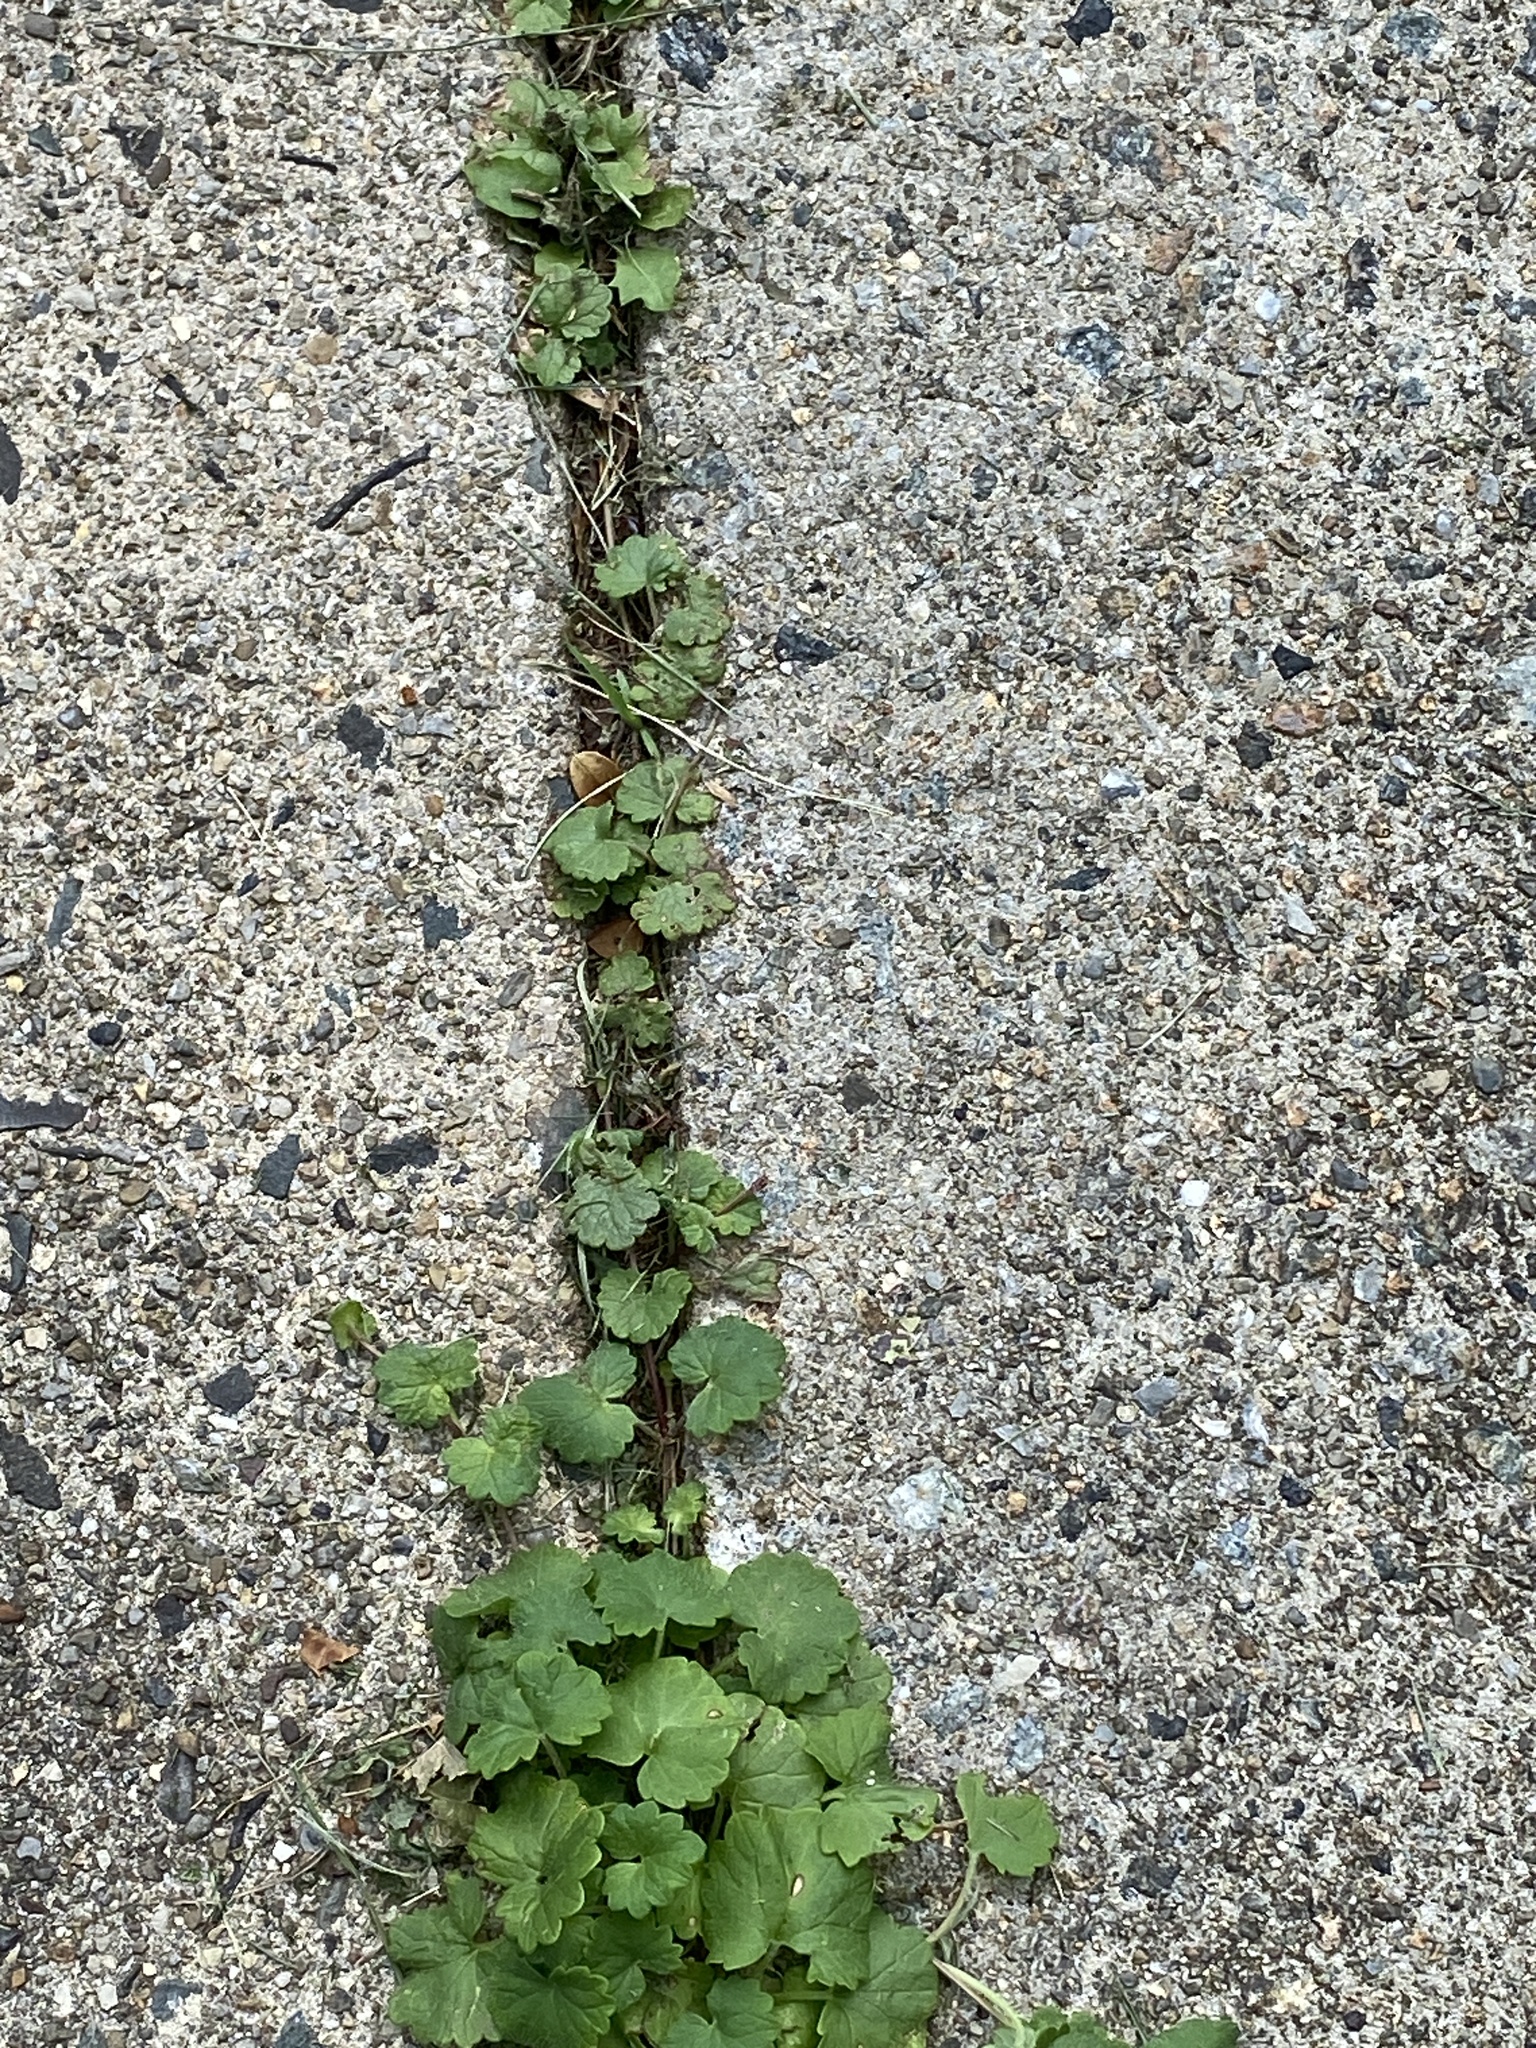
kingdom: Plantae
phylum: Tracheophyta
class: Magnoliopsida
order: Lamiales
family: Lamiaceae
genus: Glechoma
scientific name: Glechoma hederacea
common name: Ground ivy
